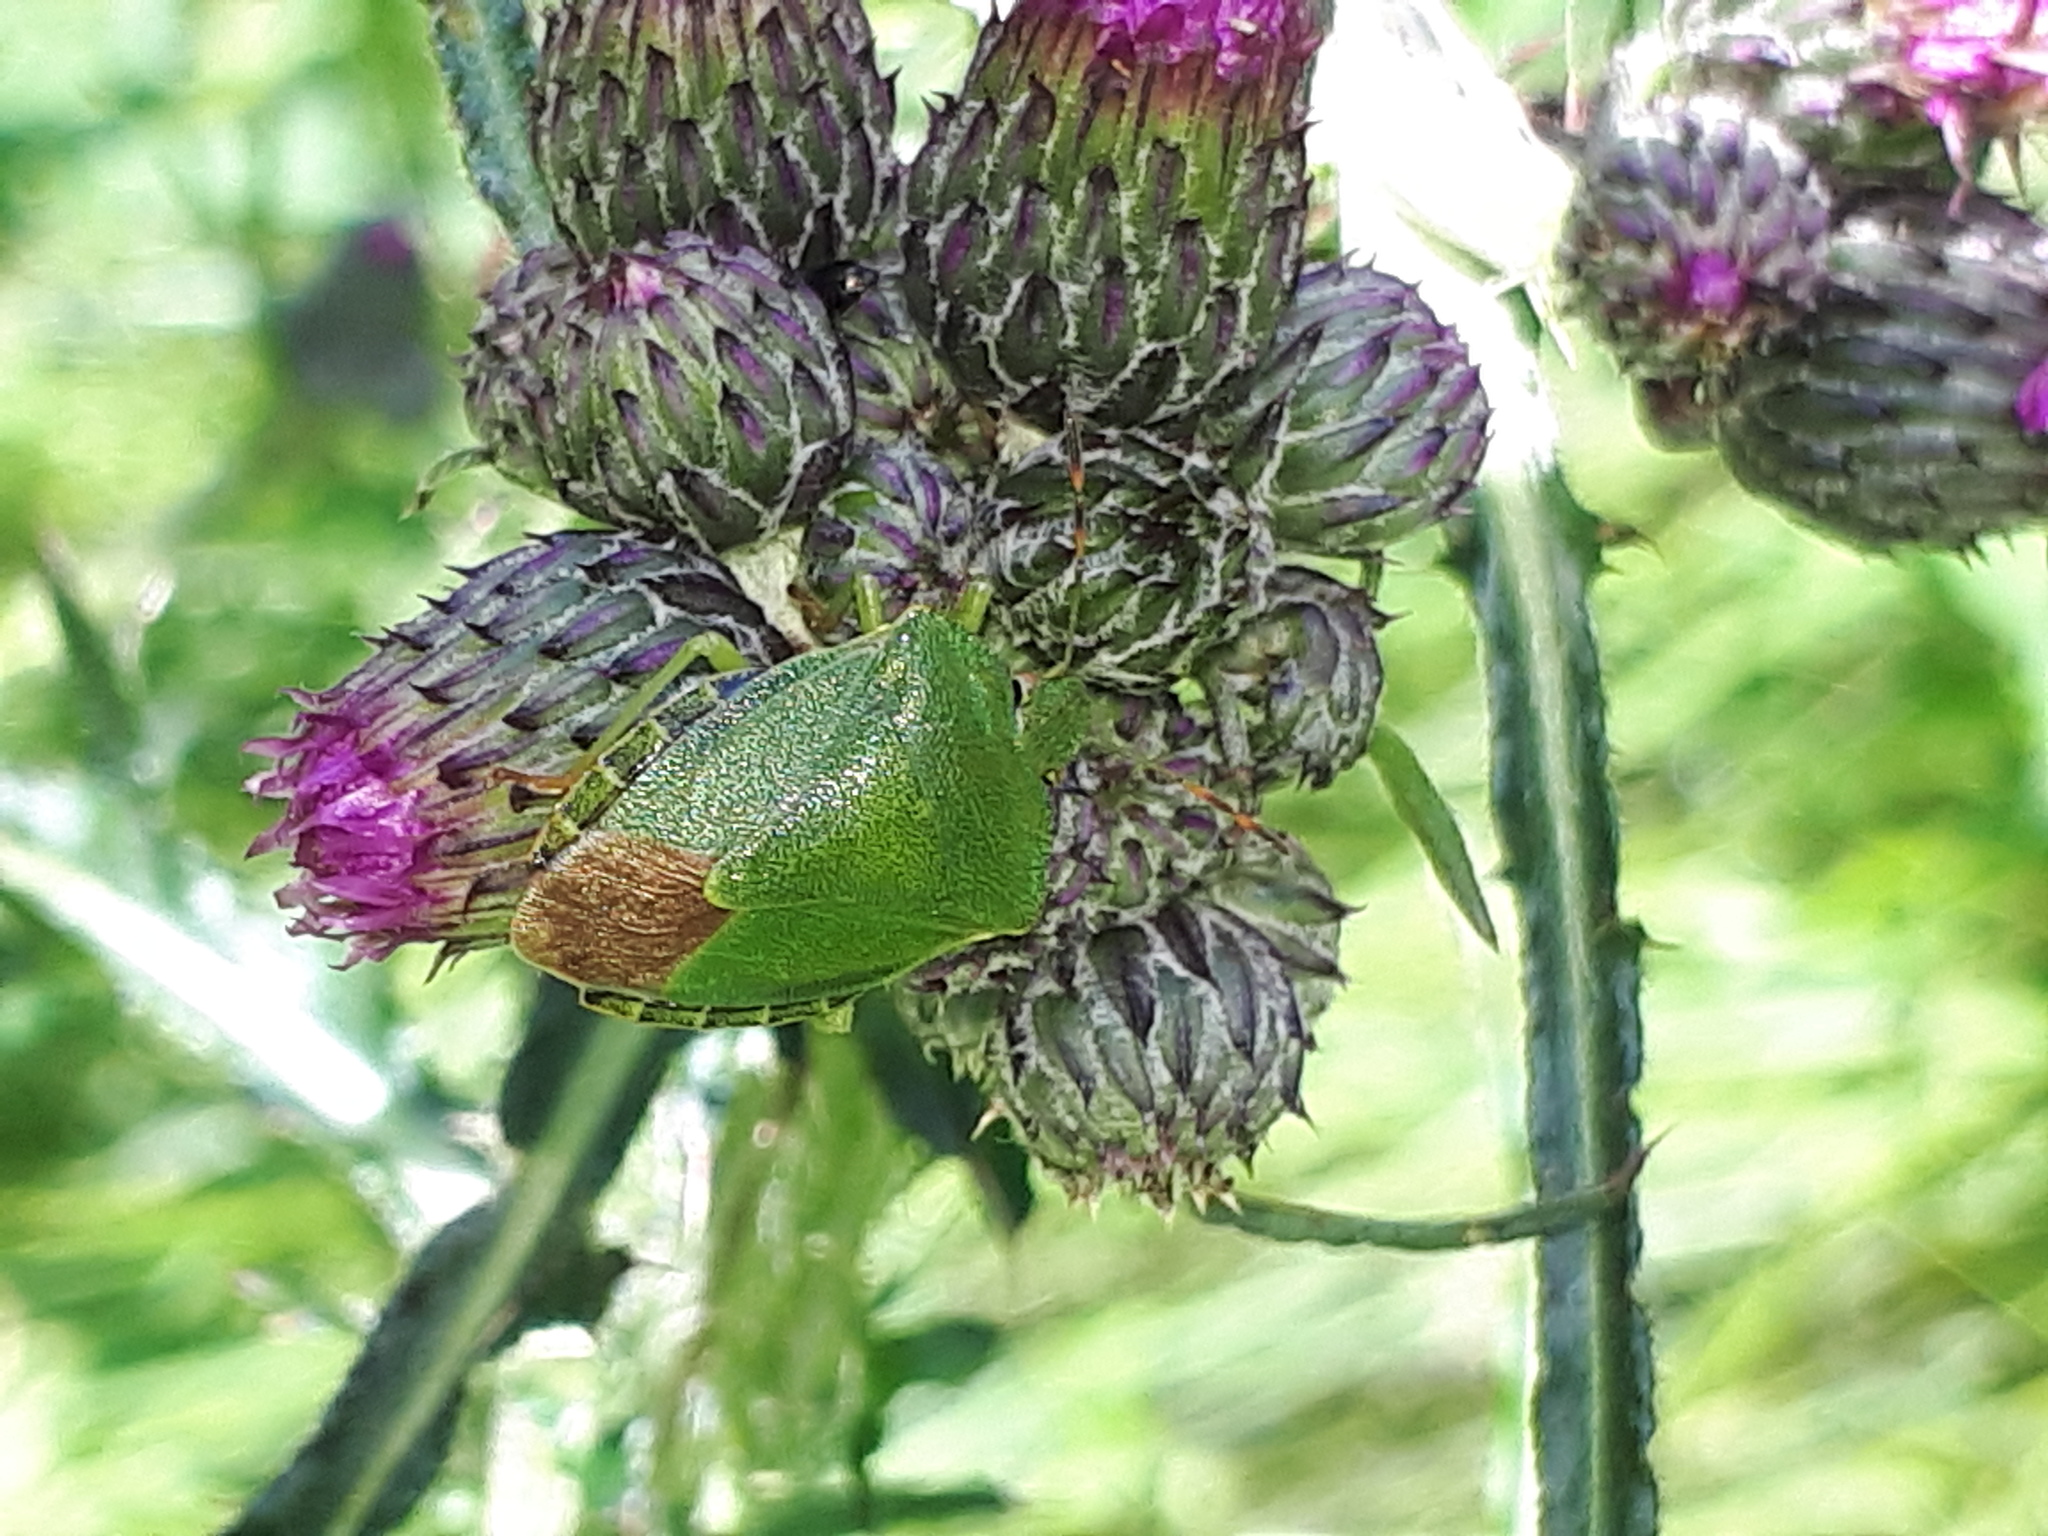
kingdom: Animalia
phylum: Arthropoda
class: Insecta
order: Hemiptera
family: Pentatomidae
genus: Palomena
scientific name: Palomena prasina
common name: Green shieldbug
